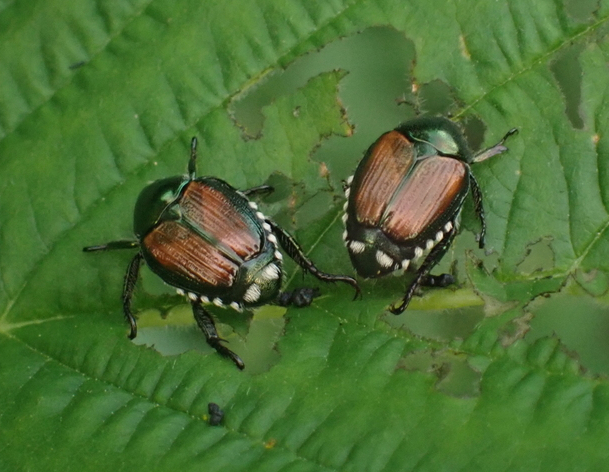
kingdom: Animalia
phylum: Arthropoda
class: Insecta
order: Coleoptera
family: Scarabaeidae
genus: Popillia
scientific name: Popillia japonica
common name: Japanese beetle
